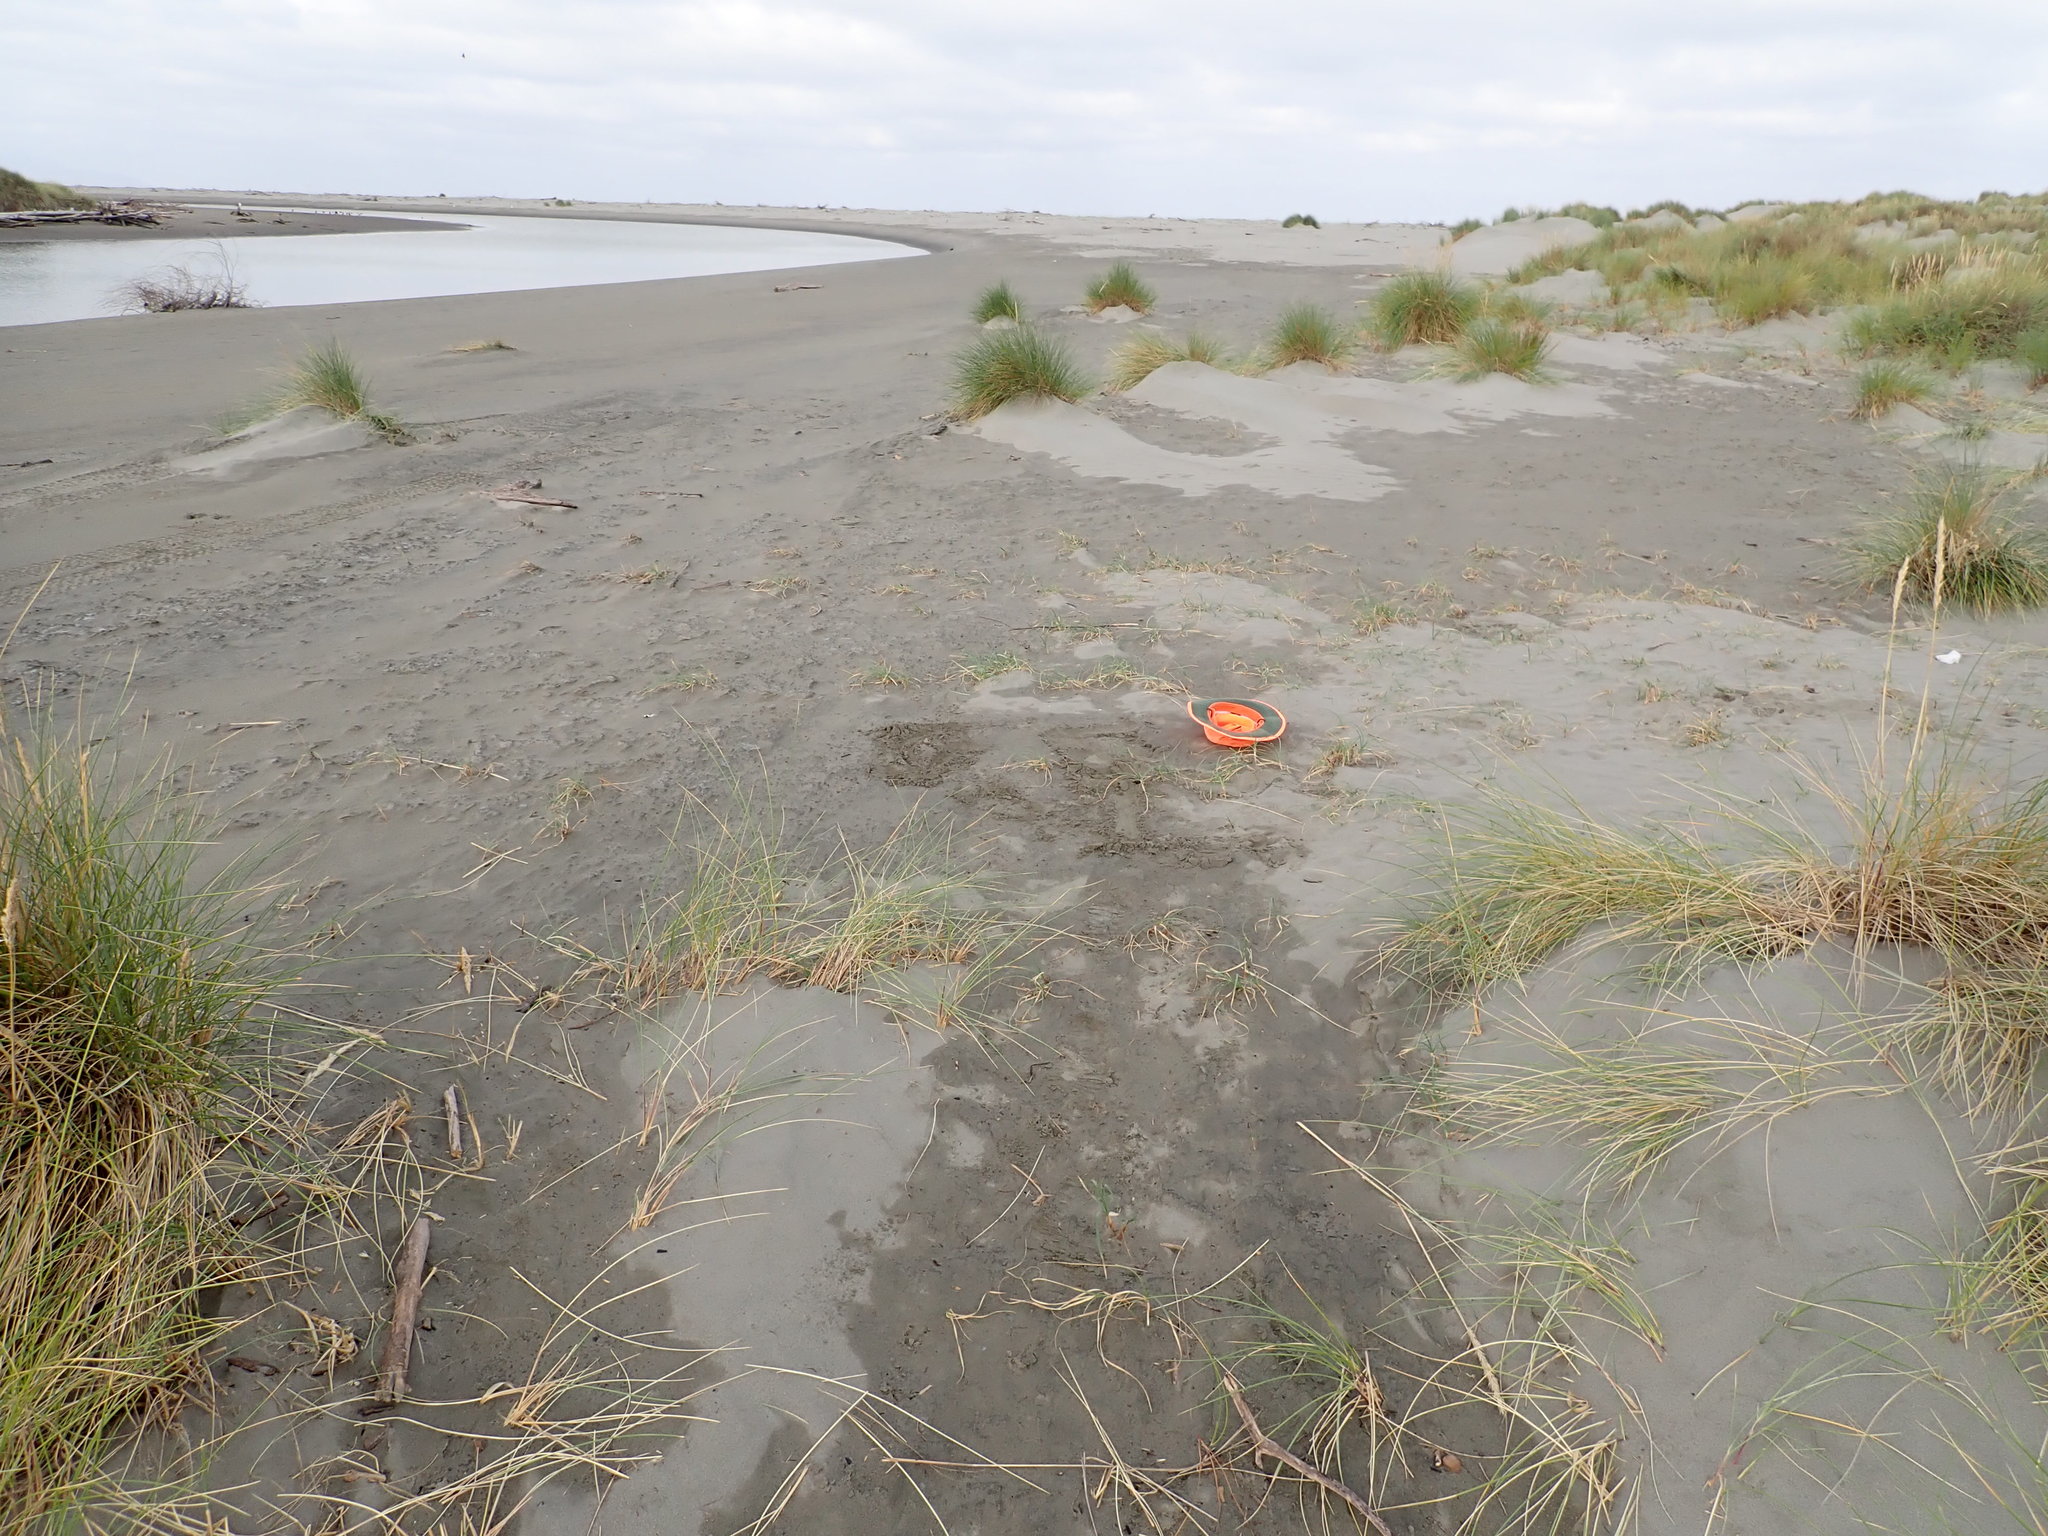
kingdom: Plantae
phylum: Tracheophyta
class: Liliopsida
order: Poales
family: Cyperaceae
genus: Carex
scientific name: Carex pumila
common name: Dwarf sedge
